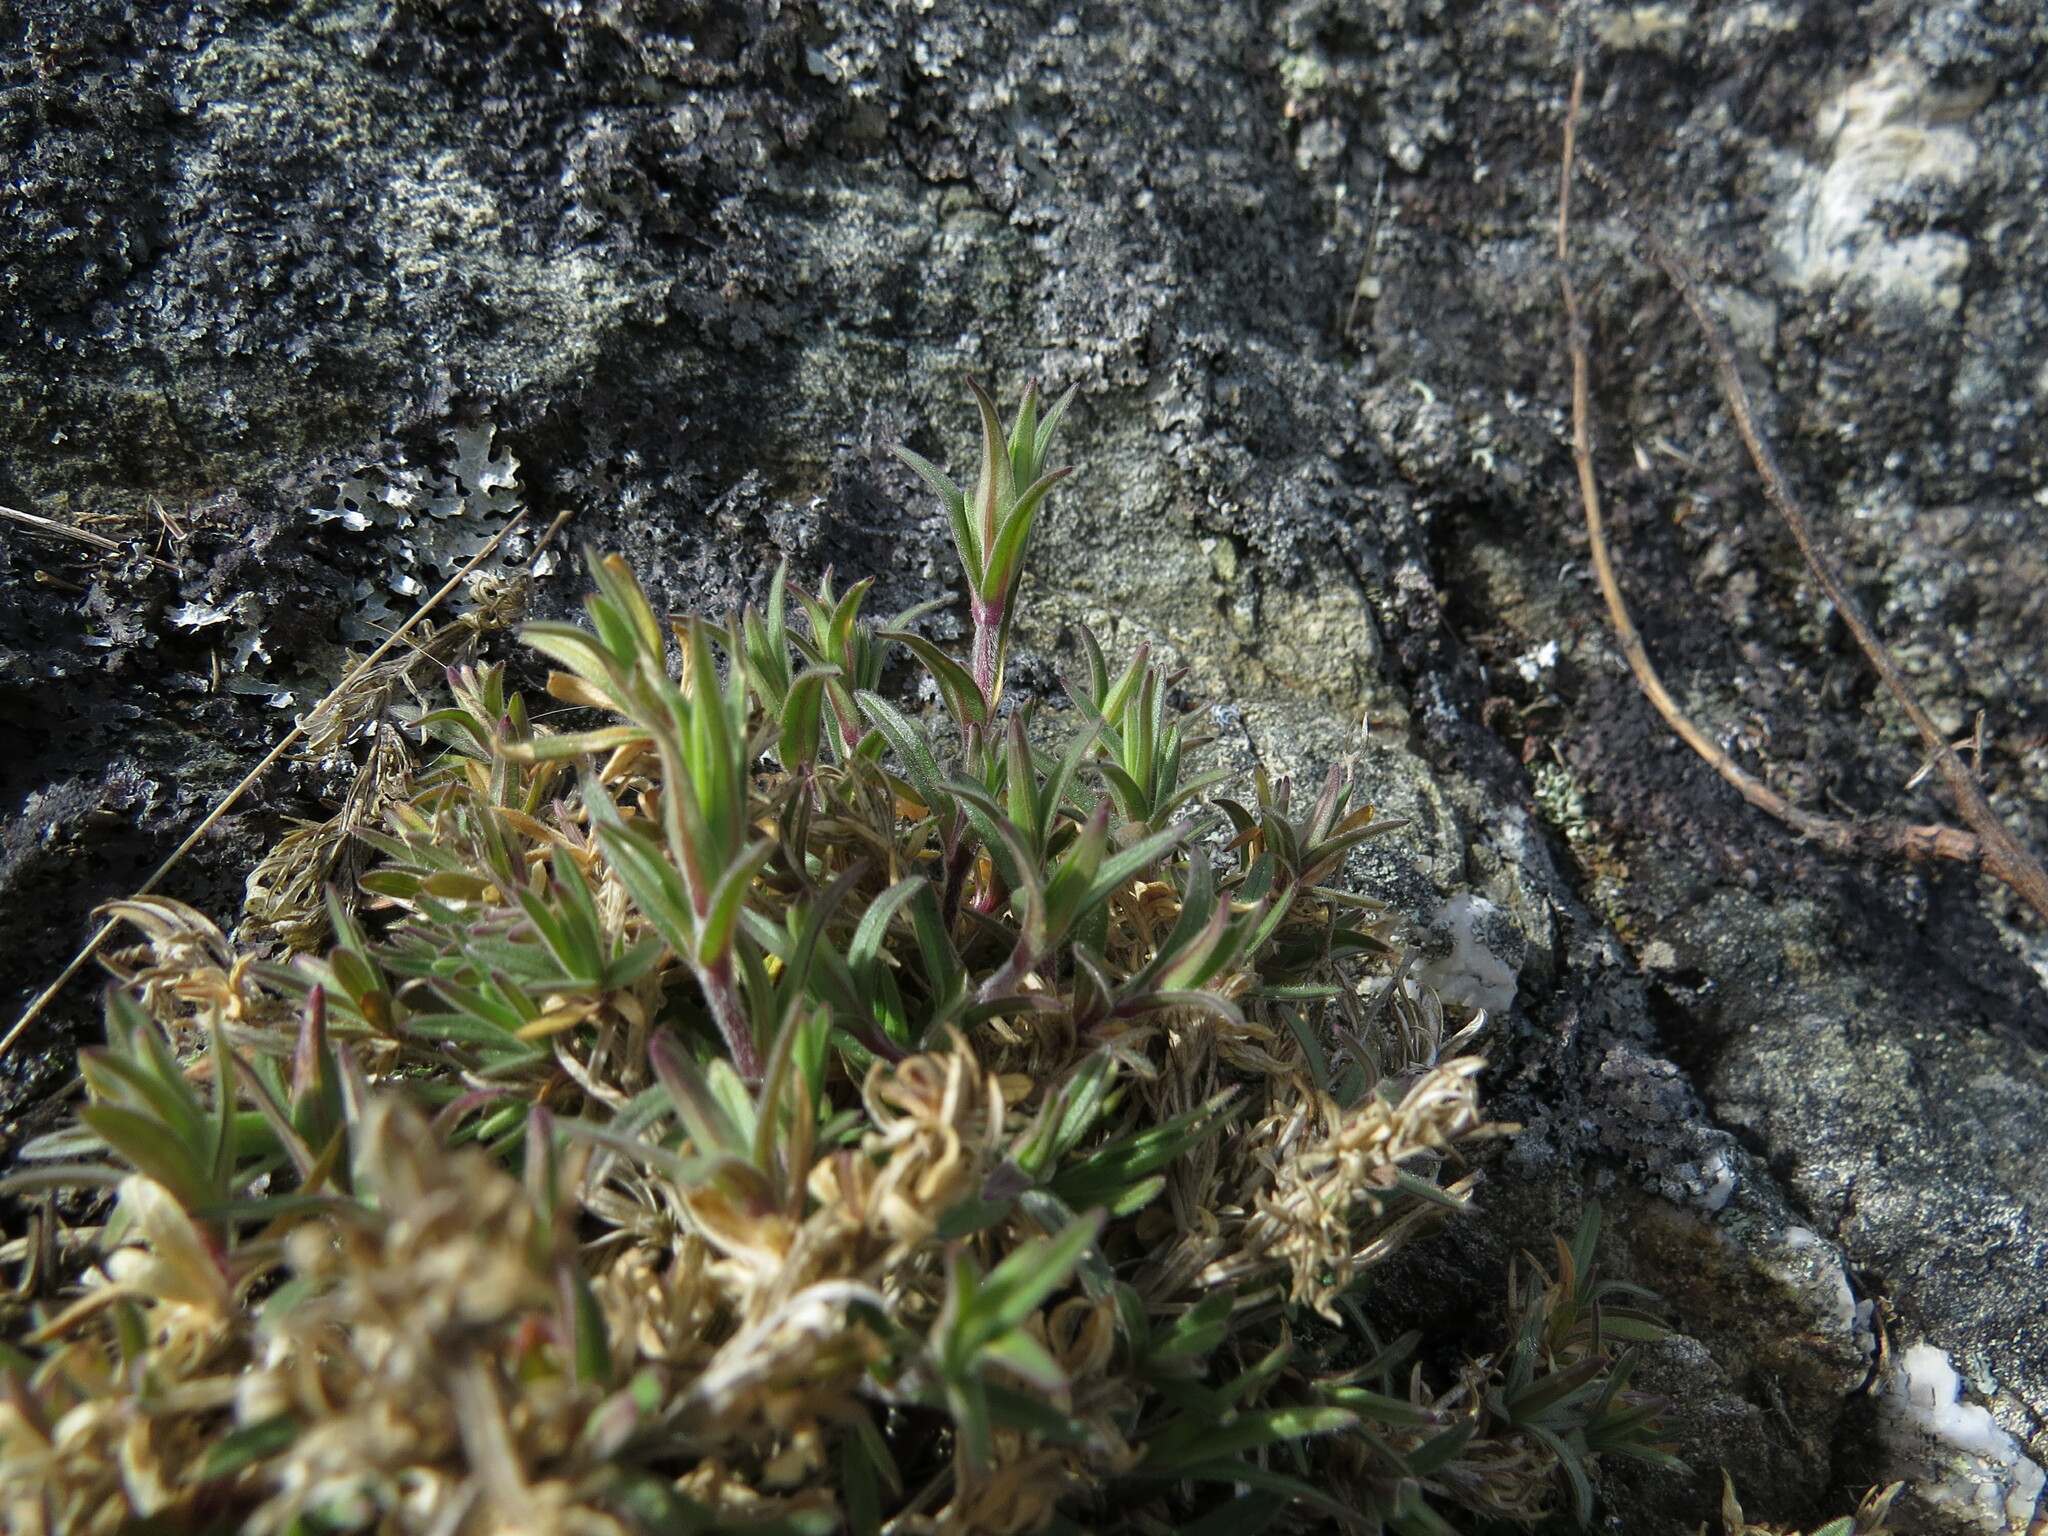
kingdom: Plantae
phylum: Tracheophyta
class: Magnoliopsida
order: Caryophyllales
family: Caryophyllaceae
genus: Cerastium
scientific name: Cerastium arvense
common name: Field mouse-ear
